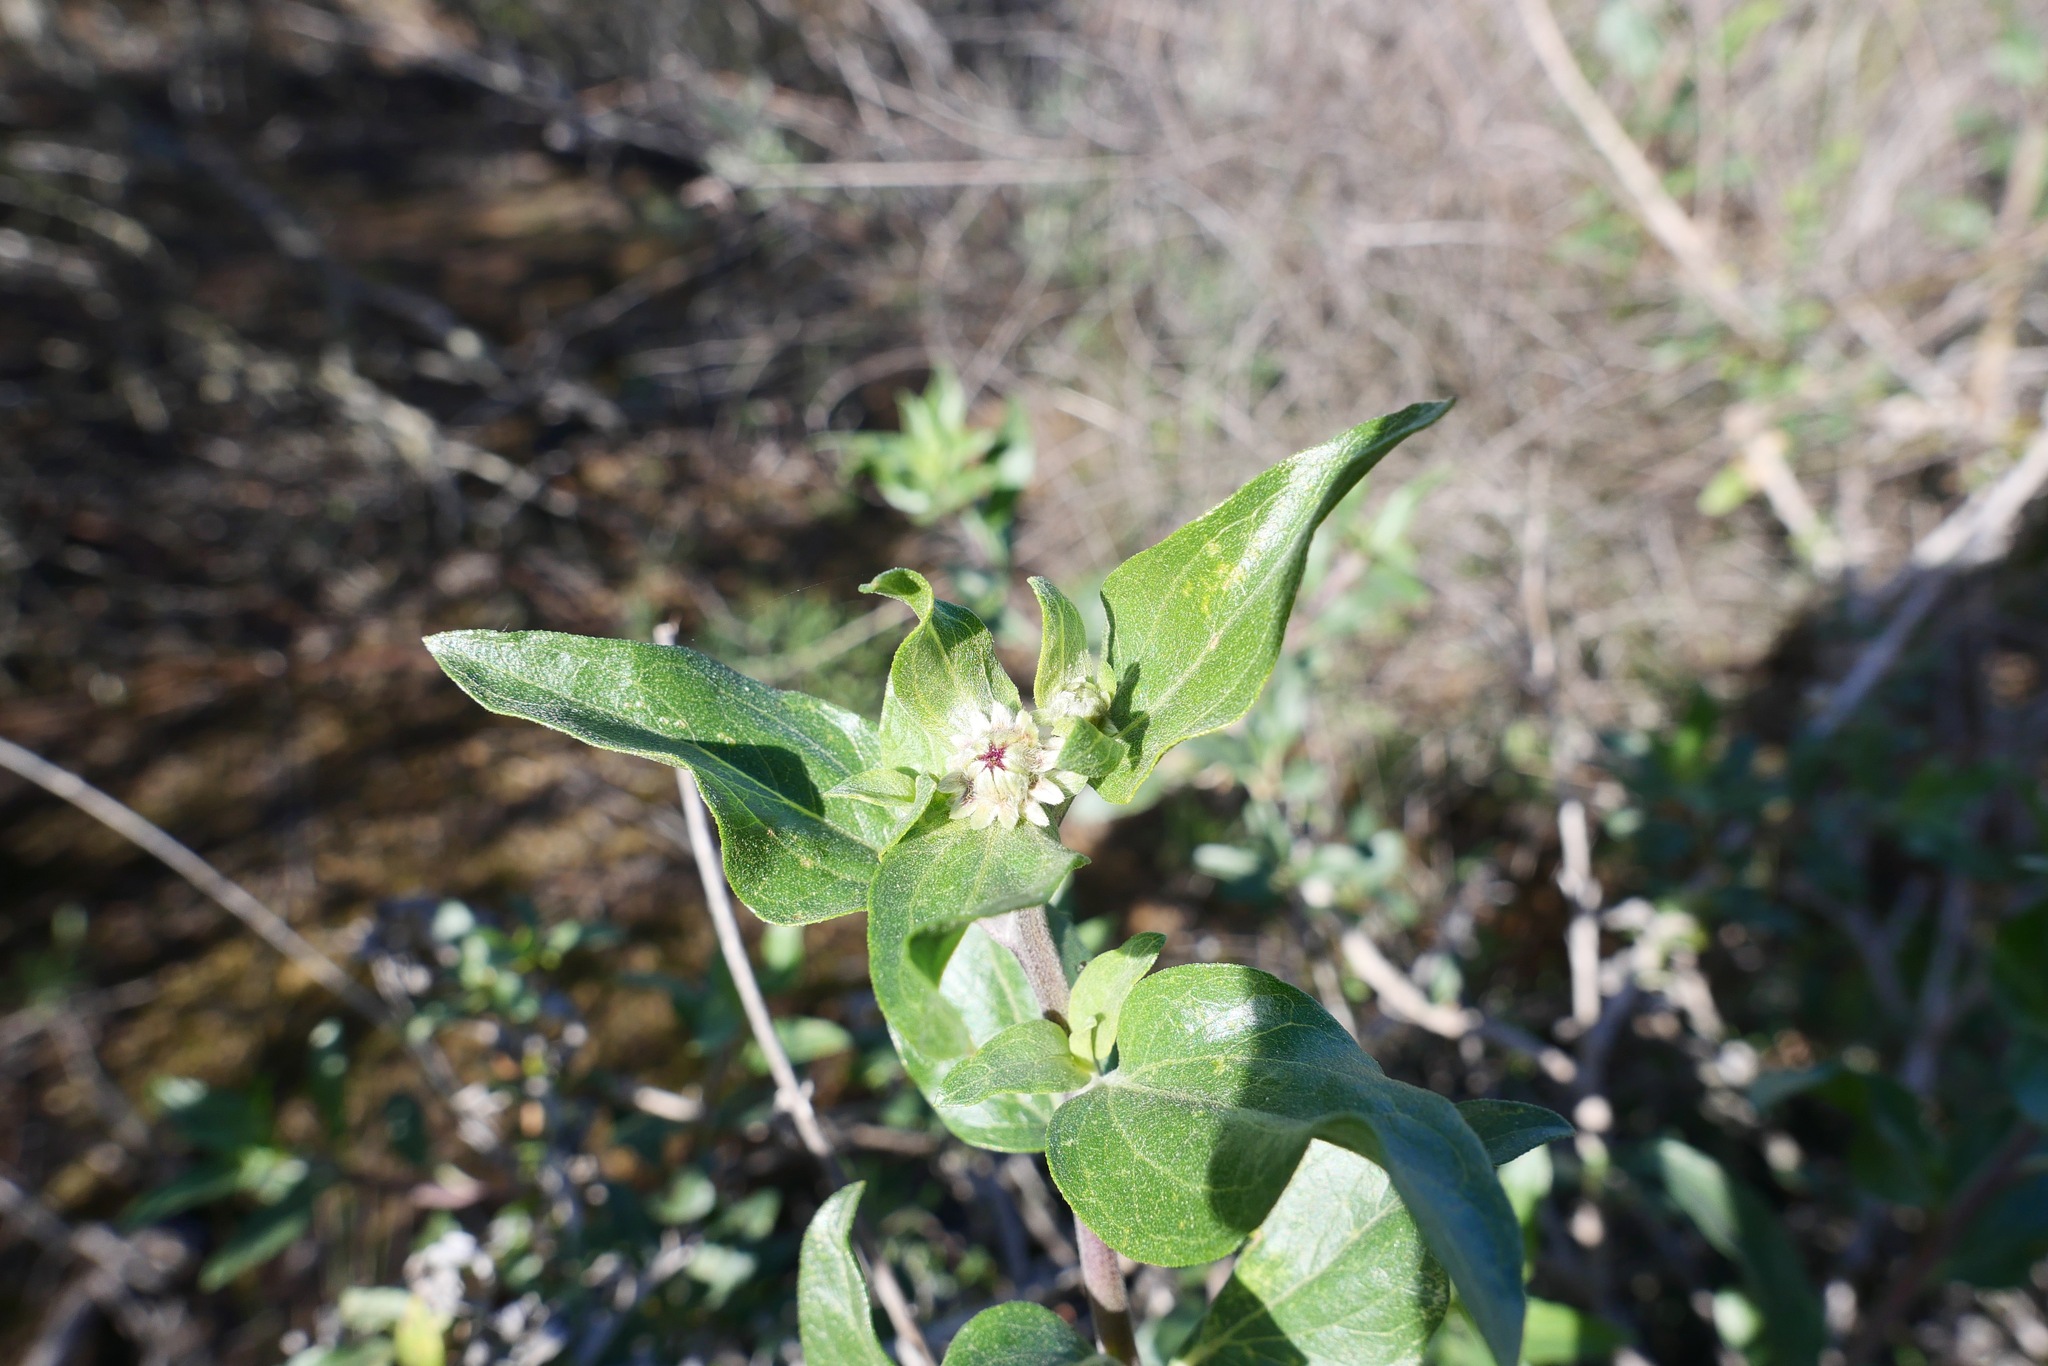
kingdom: Plantae
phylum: Tracheophyta
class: Magnoliopsida
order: Asterales
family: Asteraceae
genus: Encelia
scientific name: Encelia californica
